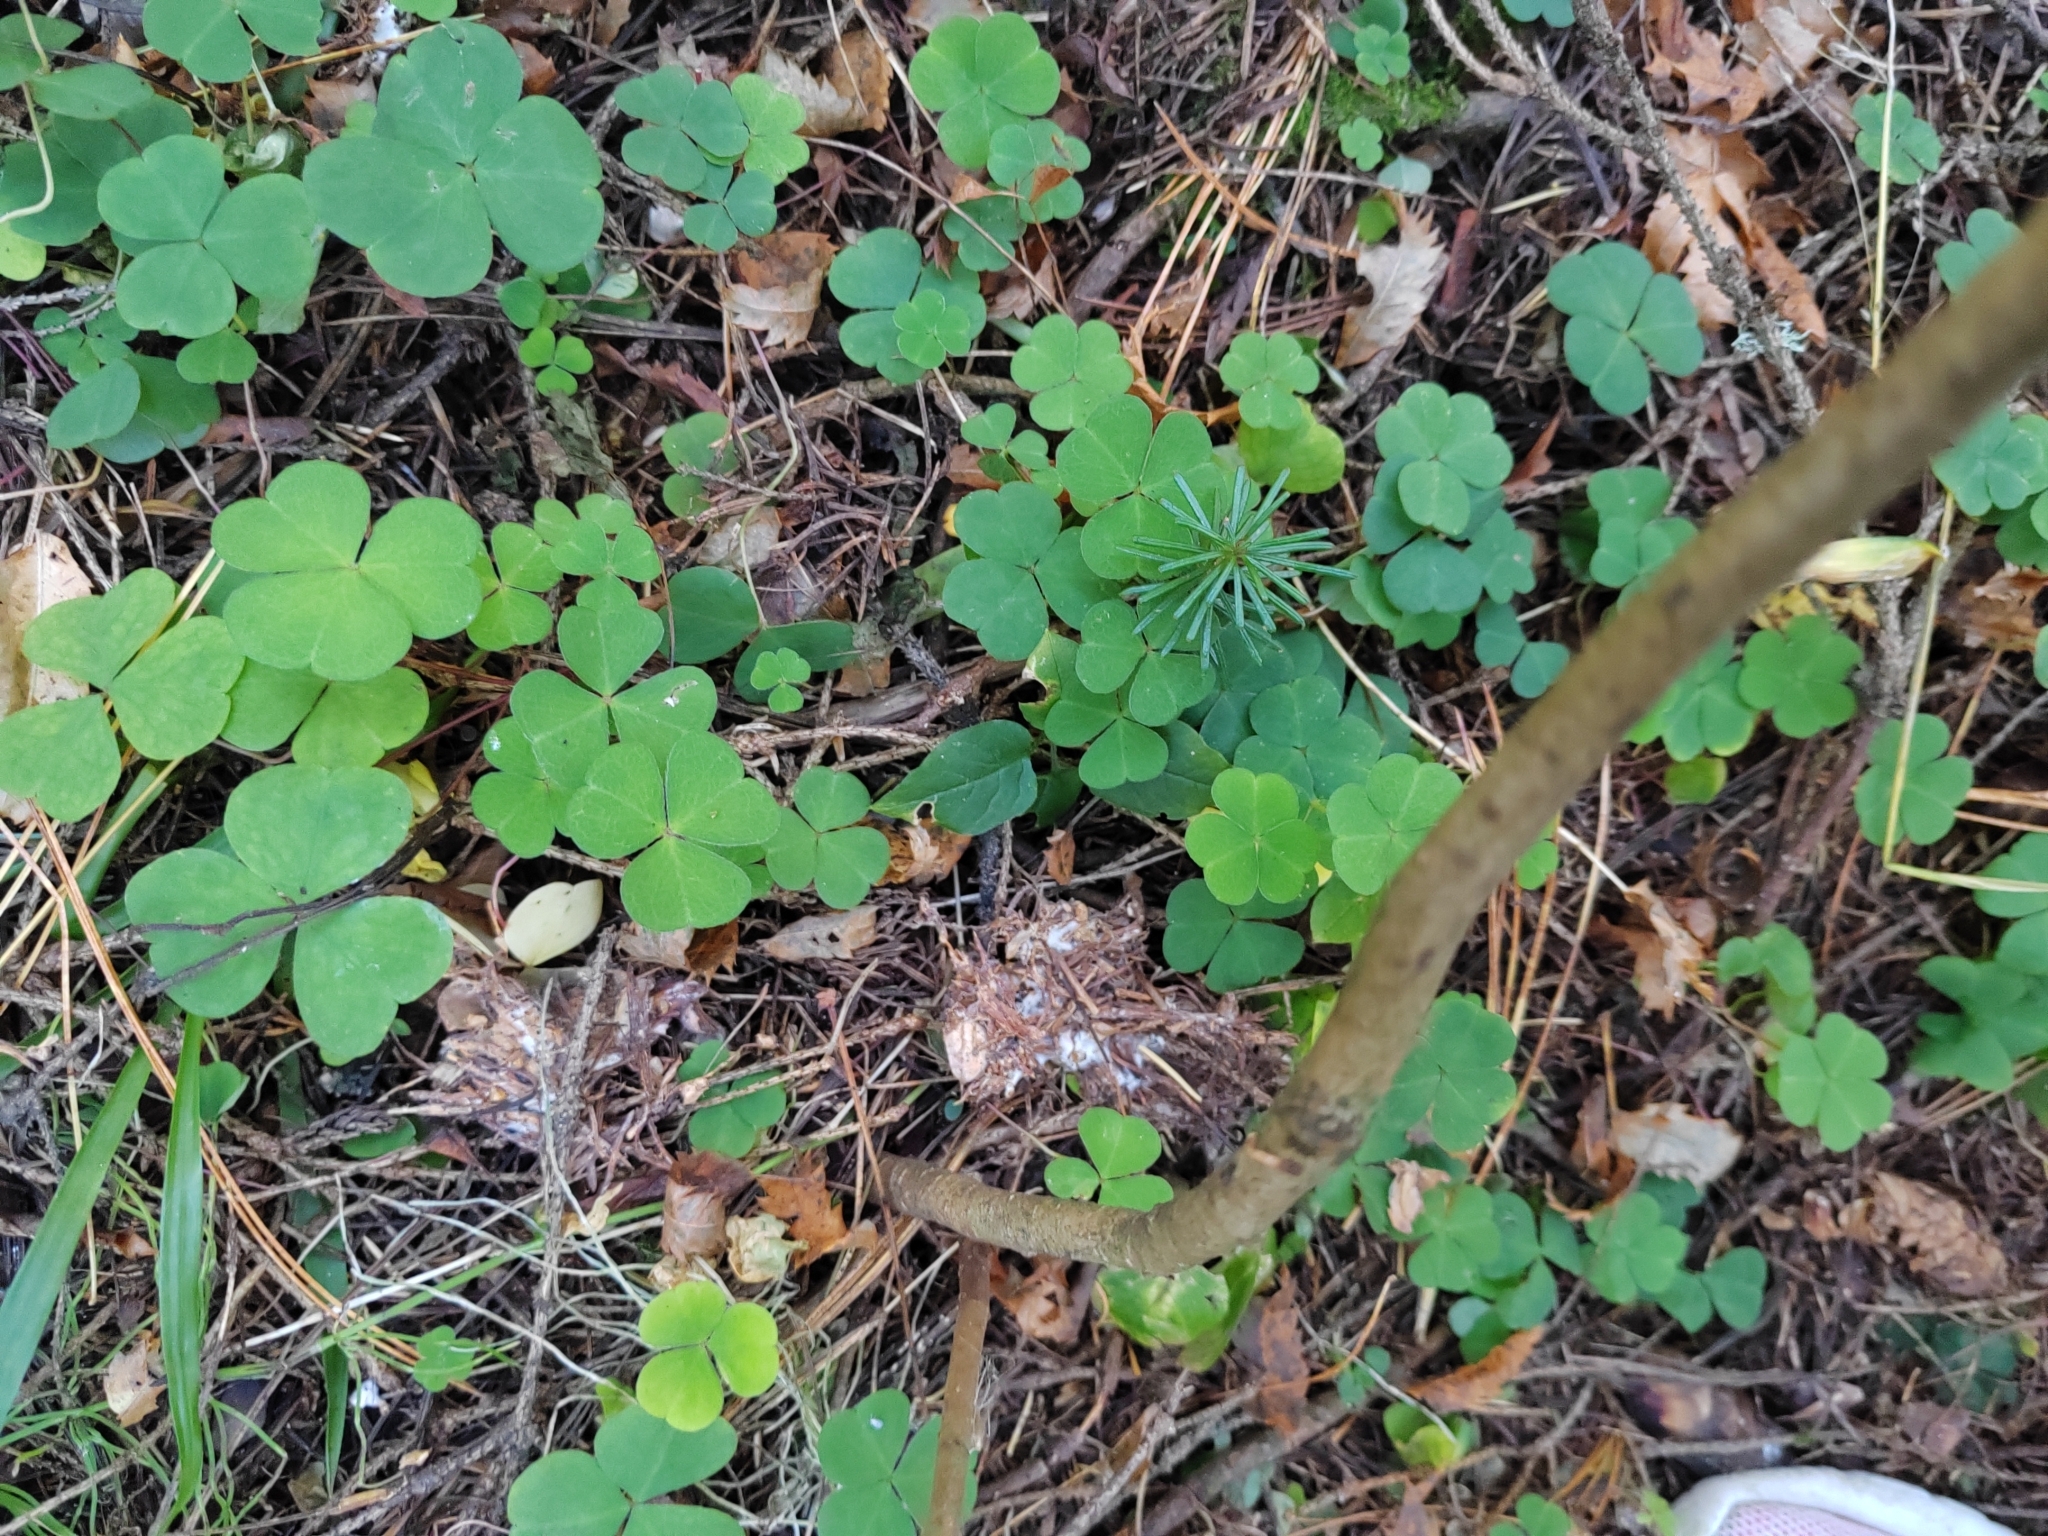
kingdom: Plantae
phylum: Tracheophyta
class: Magnoliopsida
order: Oxalidales
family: Oxalidaceae
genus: Oxalis
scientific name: Oxalis acetosella
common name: Wood-sorrel
